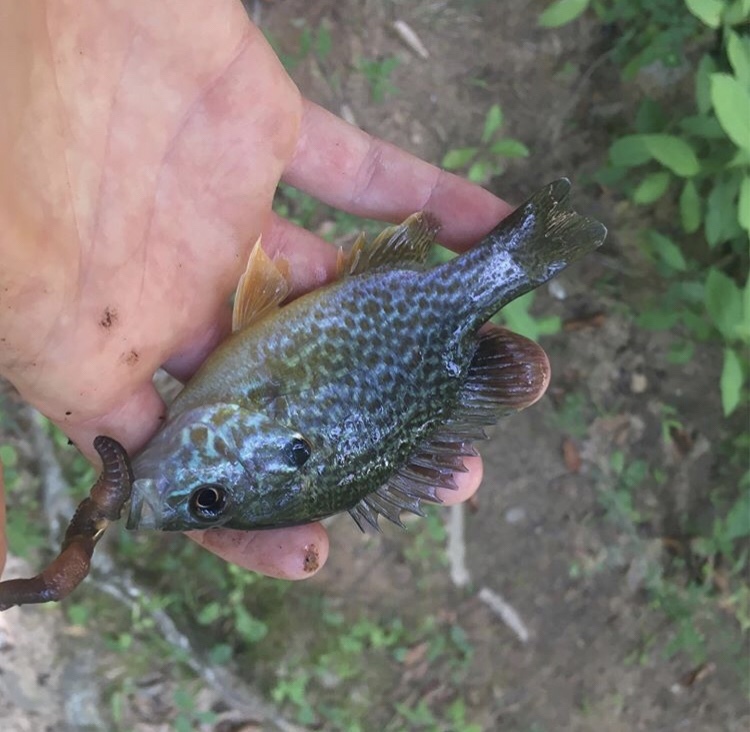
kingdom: Animalia
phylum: Chordata
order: Perciformes
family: Centrarchidae
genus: Lepomis
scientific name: Lepomis cyanellus
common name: Green sunfish
